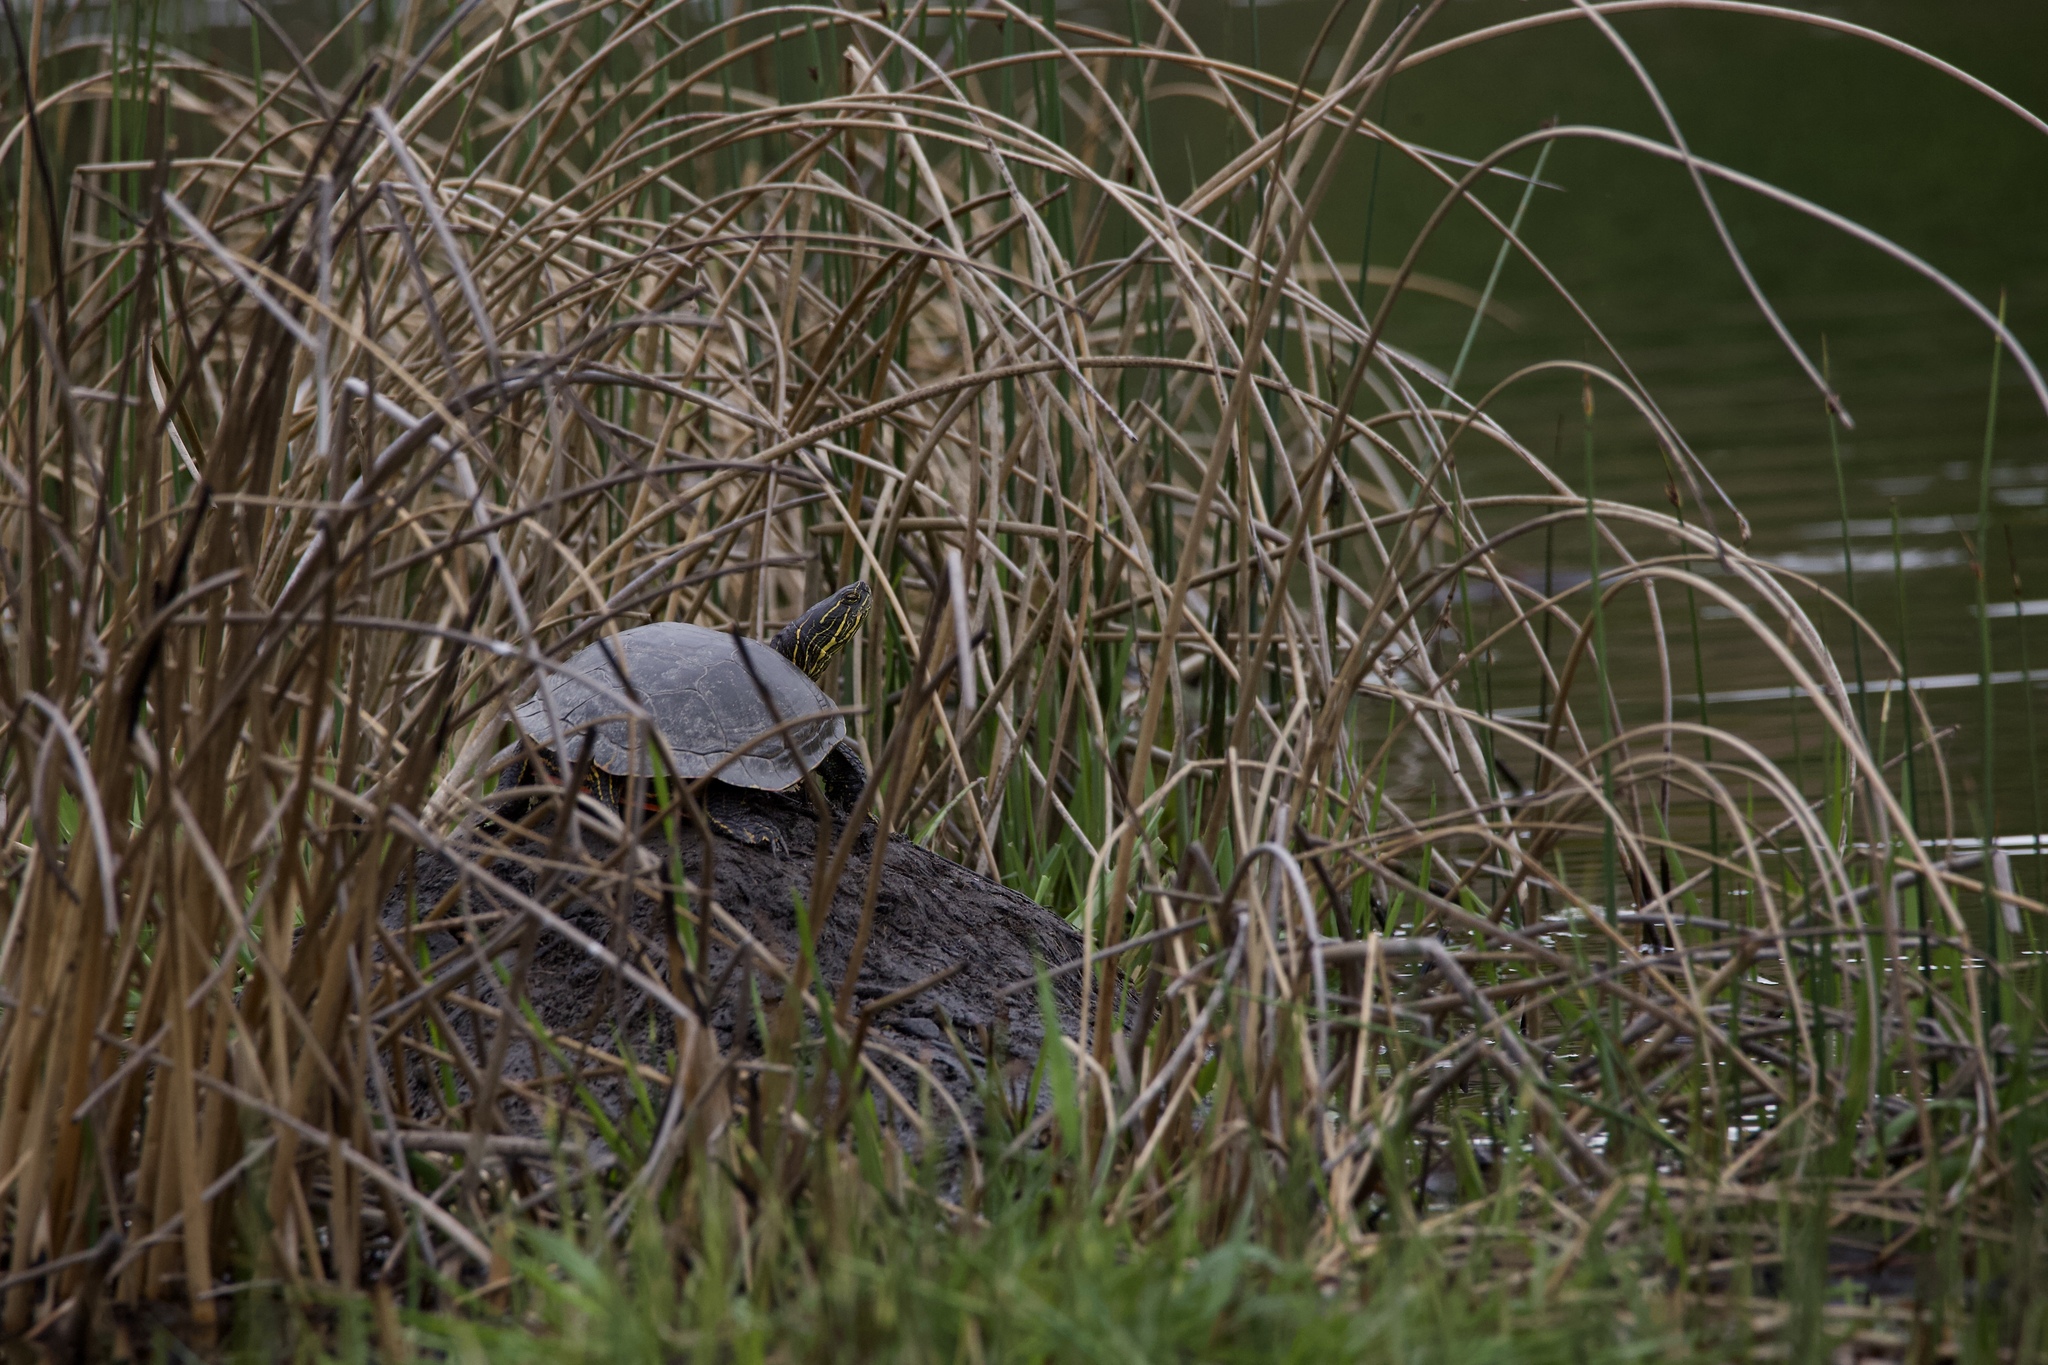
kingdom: Animalia
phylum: Chordata
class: Testudines
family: Emydidae
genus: Chrysemys
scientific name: Chrysemys picta
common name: Painted turtle
